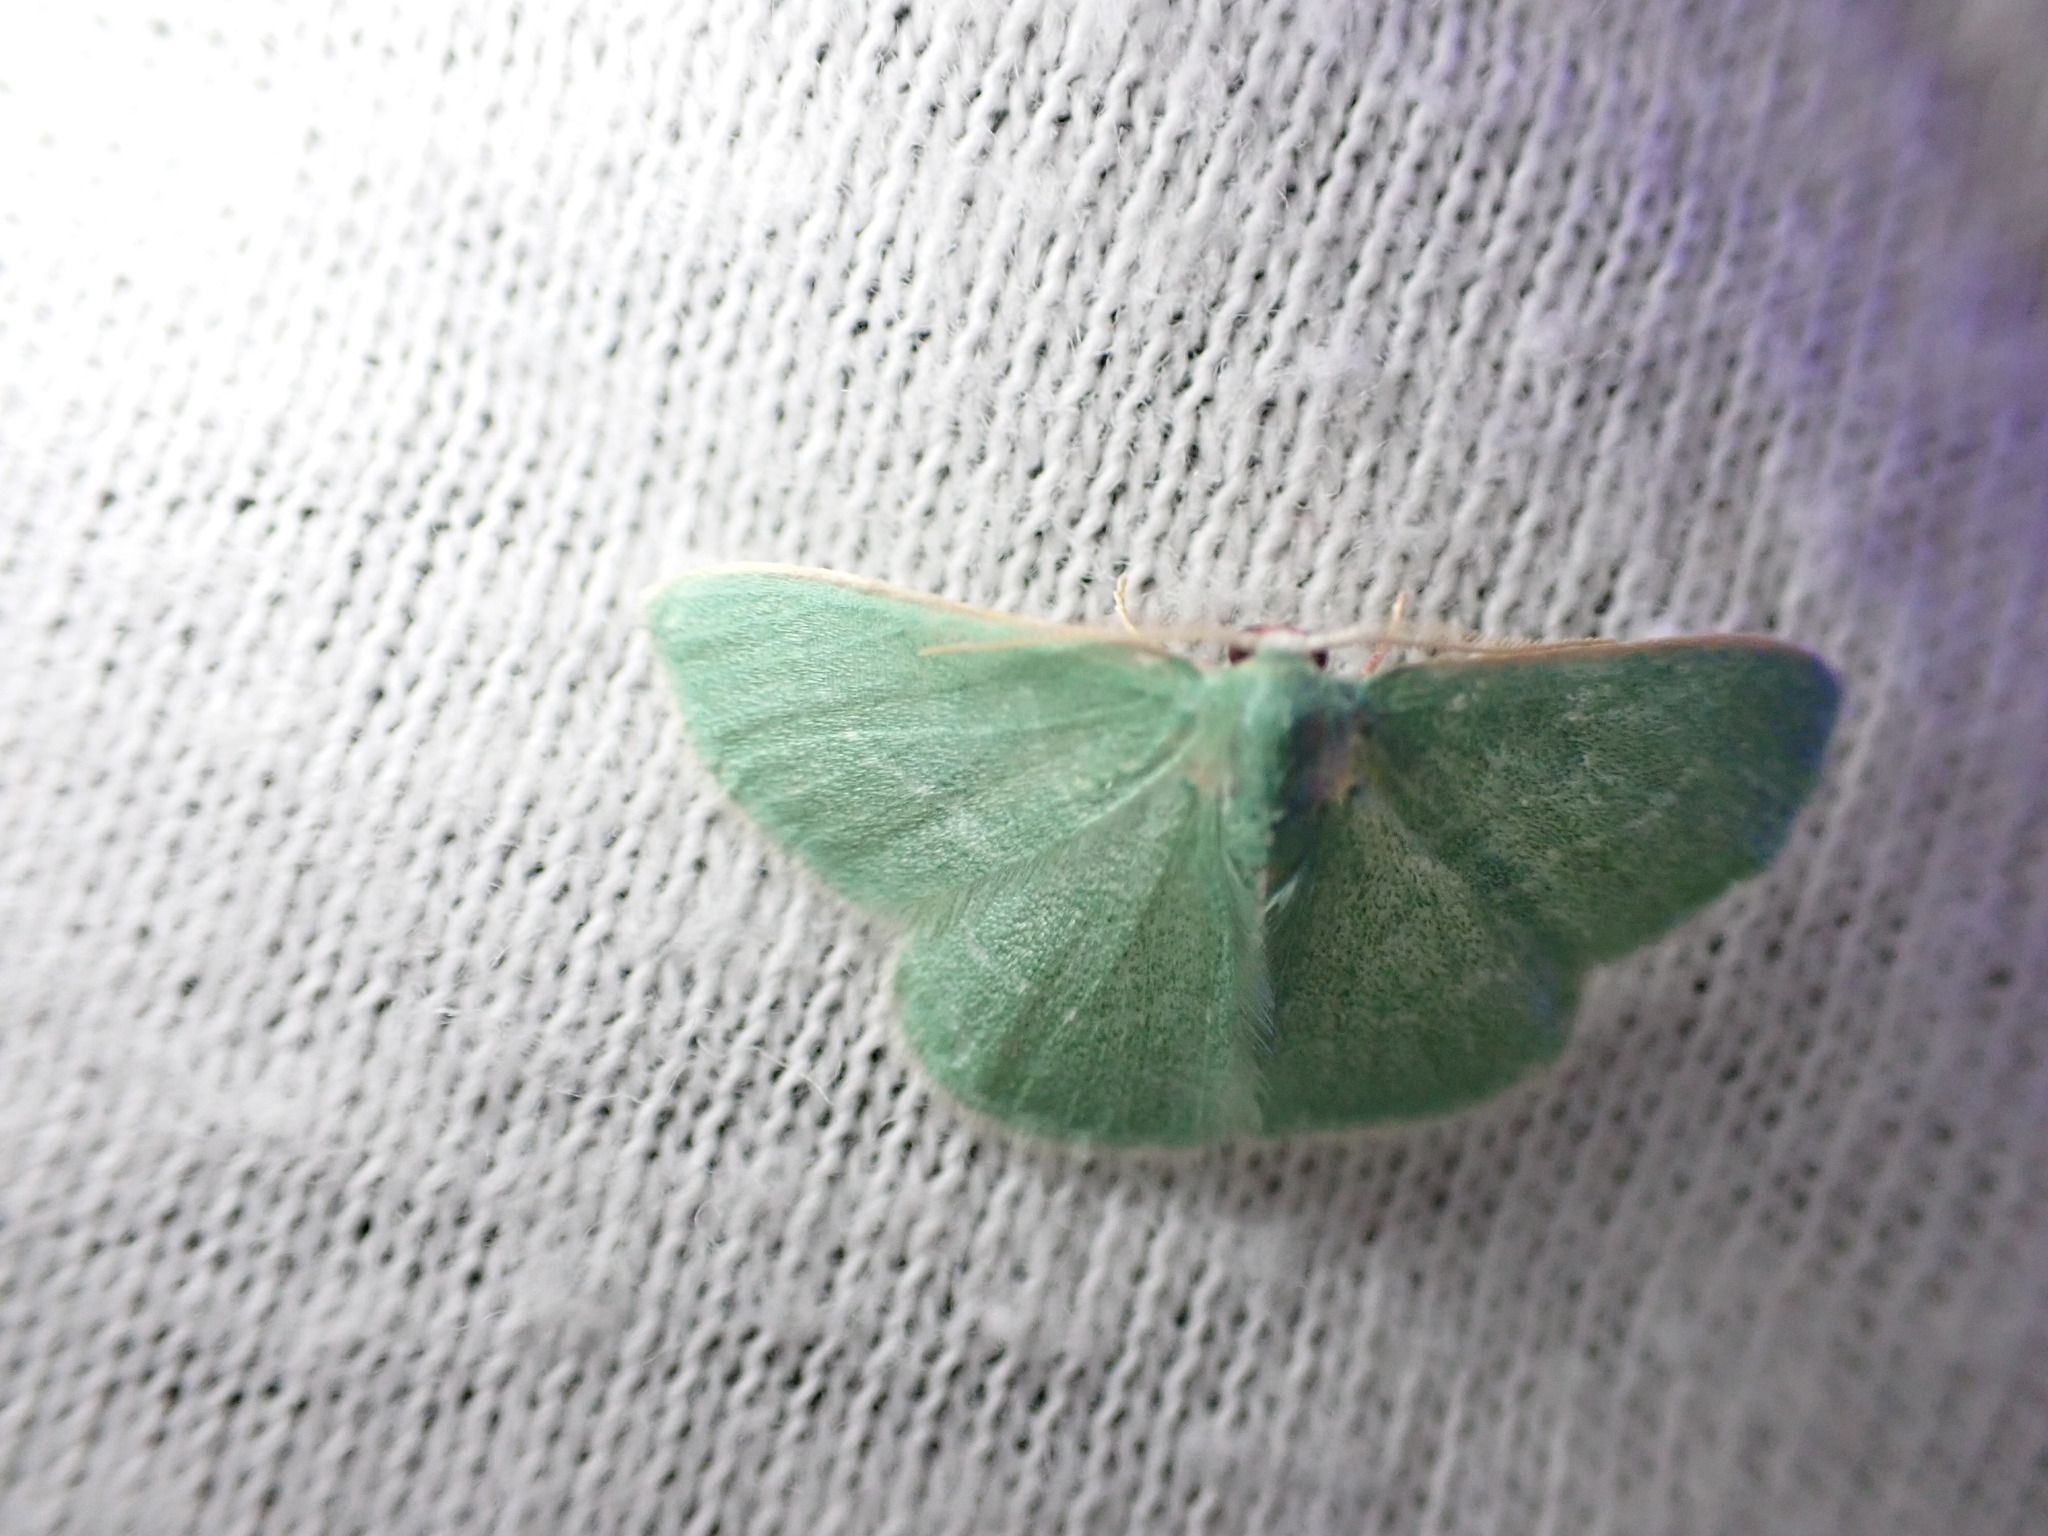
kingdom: Animalia
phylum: Arthropoda
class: Insecta
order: Lepidoptera
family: Geometridae
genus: Xenochlorodes
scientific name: Xenochlorodes olympiaria
